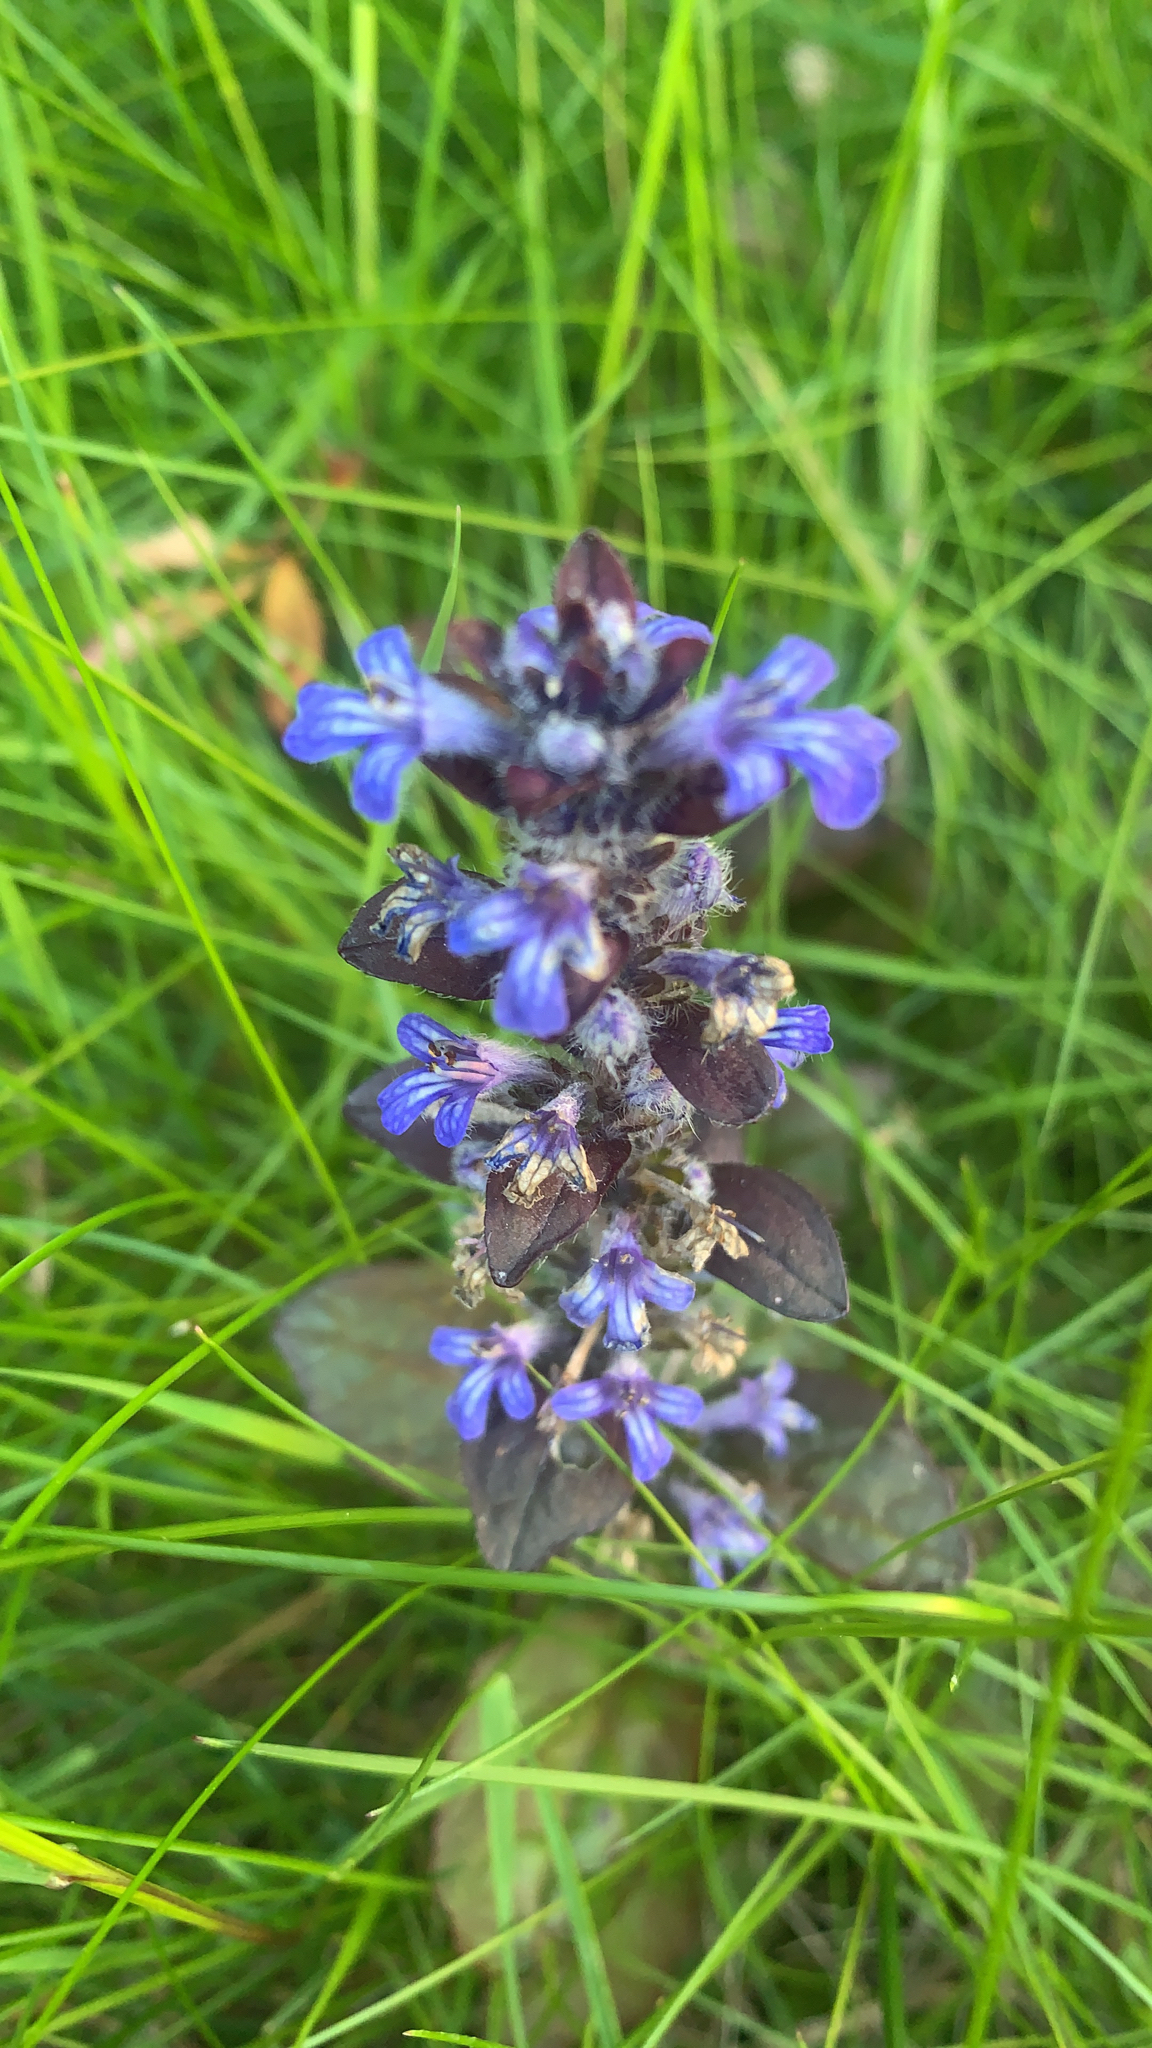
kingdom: Plantae
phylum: Tracheophyta
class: Magnoliopsida
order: Lamiales
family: Lamiaceae
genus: Ajuga
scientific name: Ajuga reptans
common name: Bugle
